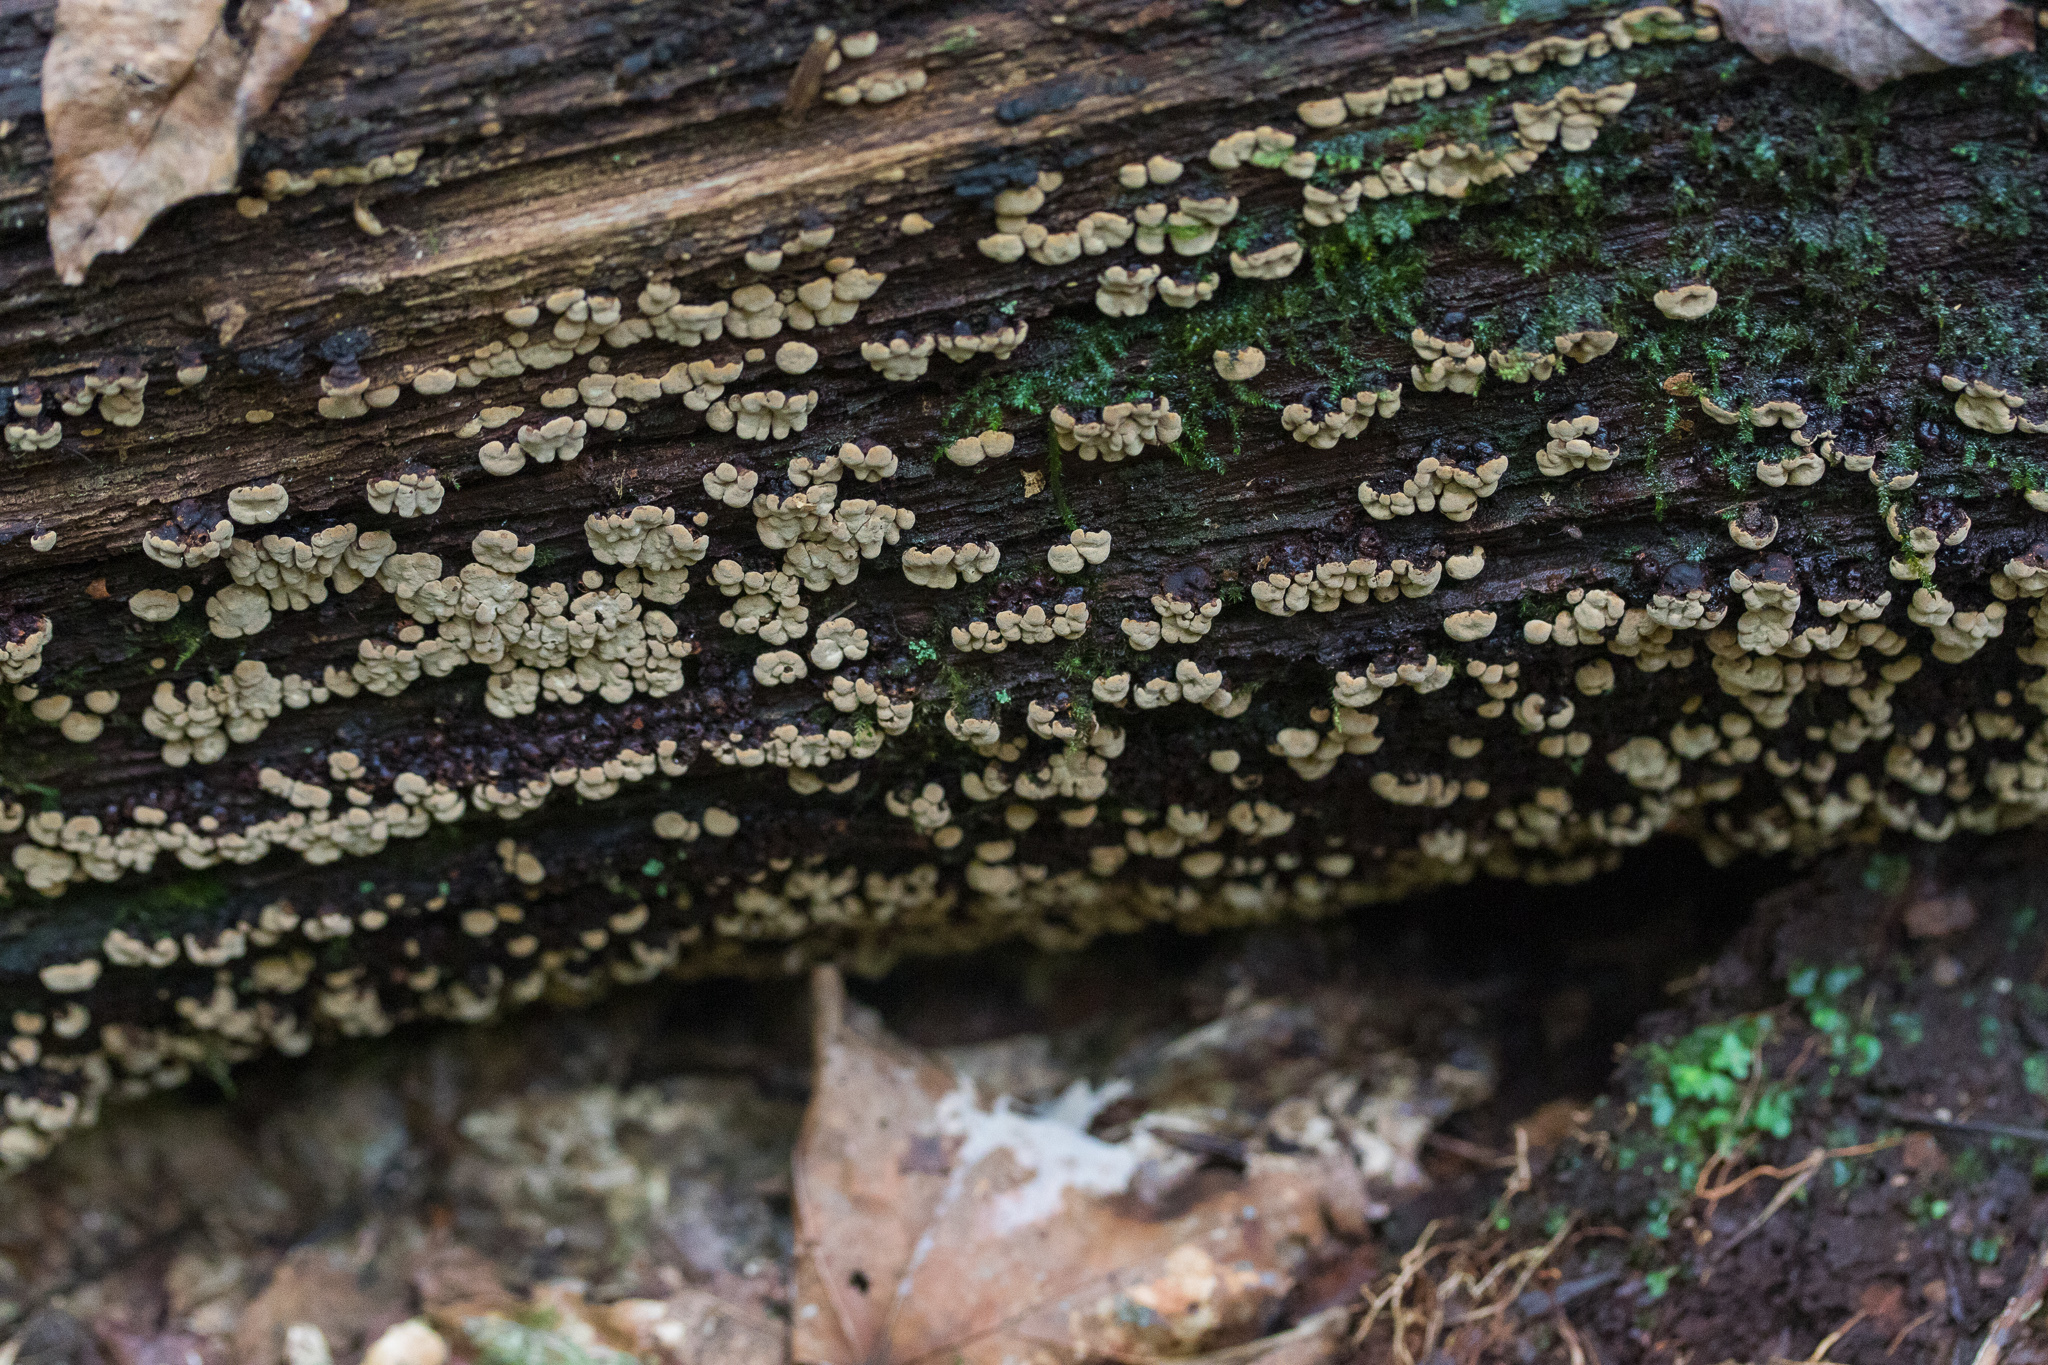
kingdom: Fungi
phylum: Basidiomycota
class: Agaricomycetes
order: Russulales
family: Stereaceae
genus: Xylobolus
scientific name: Xylobolus frustulatus
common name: Ceramic parchment
